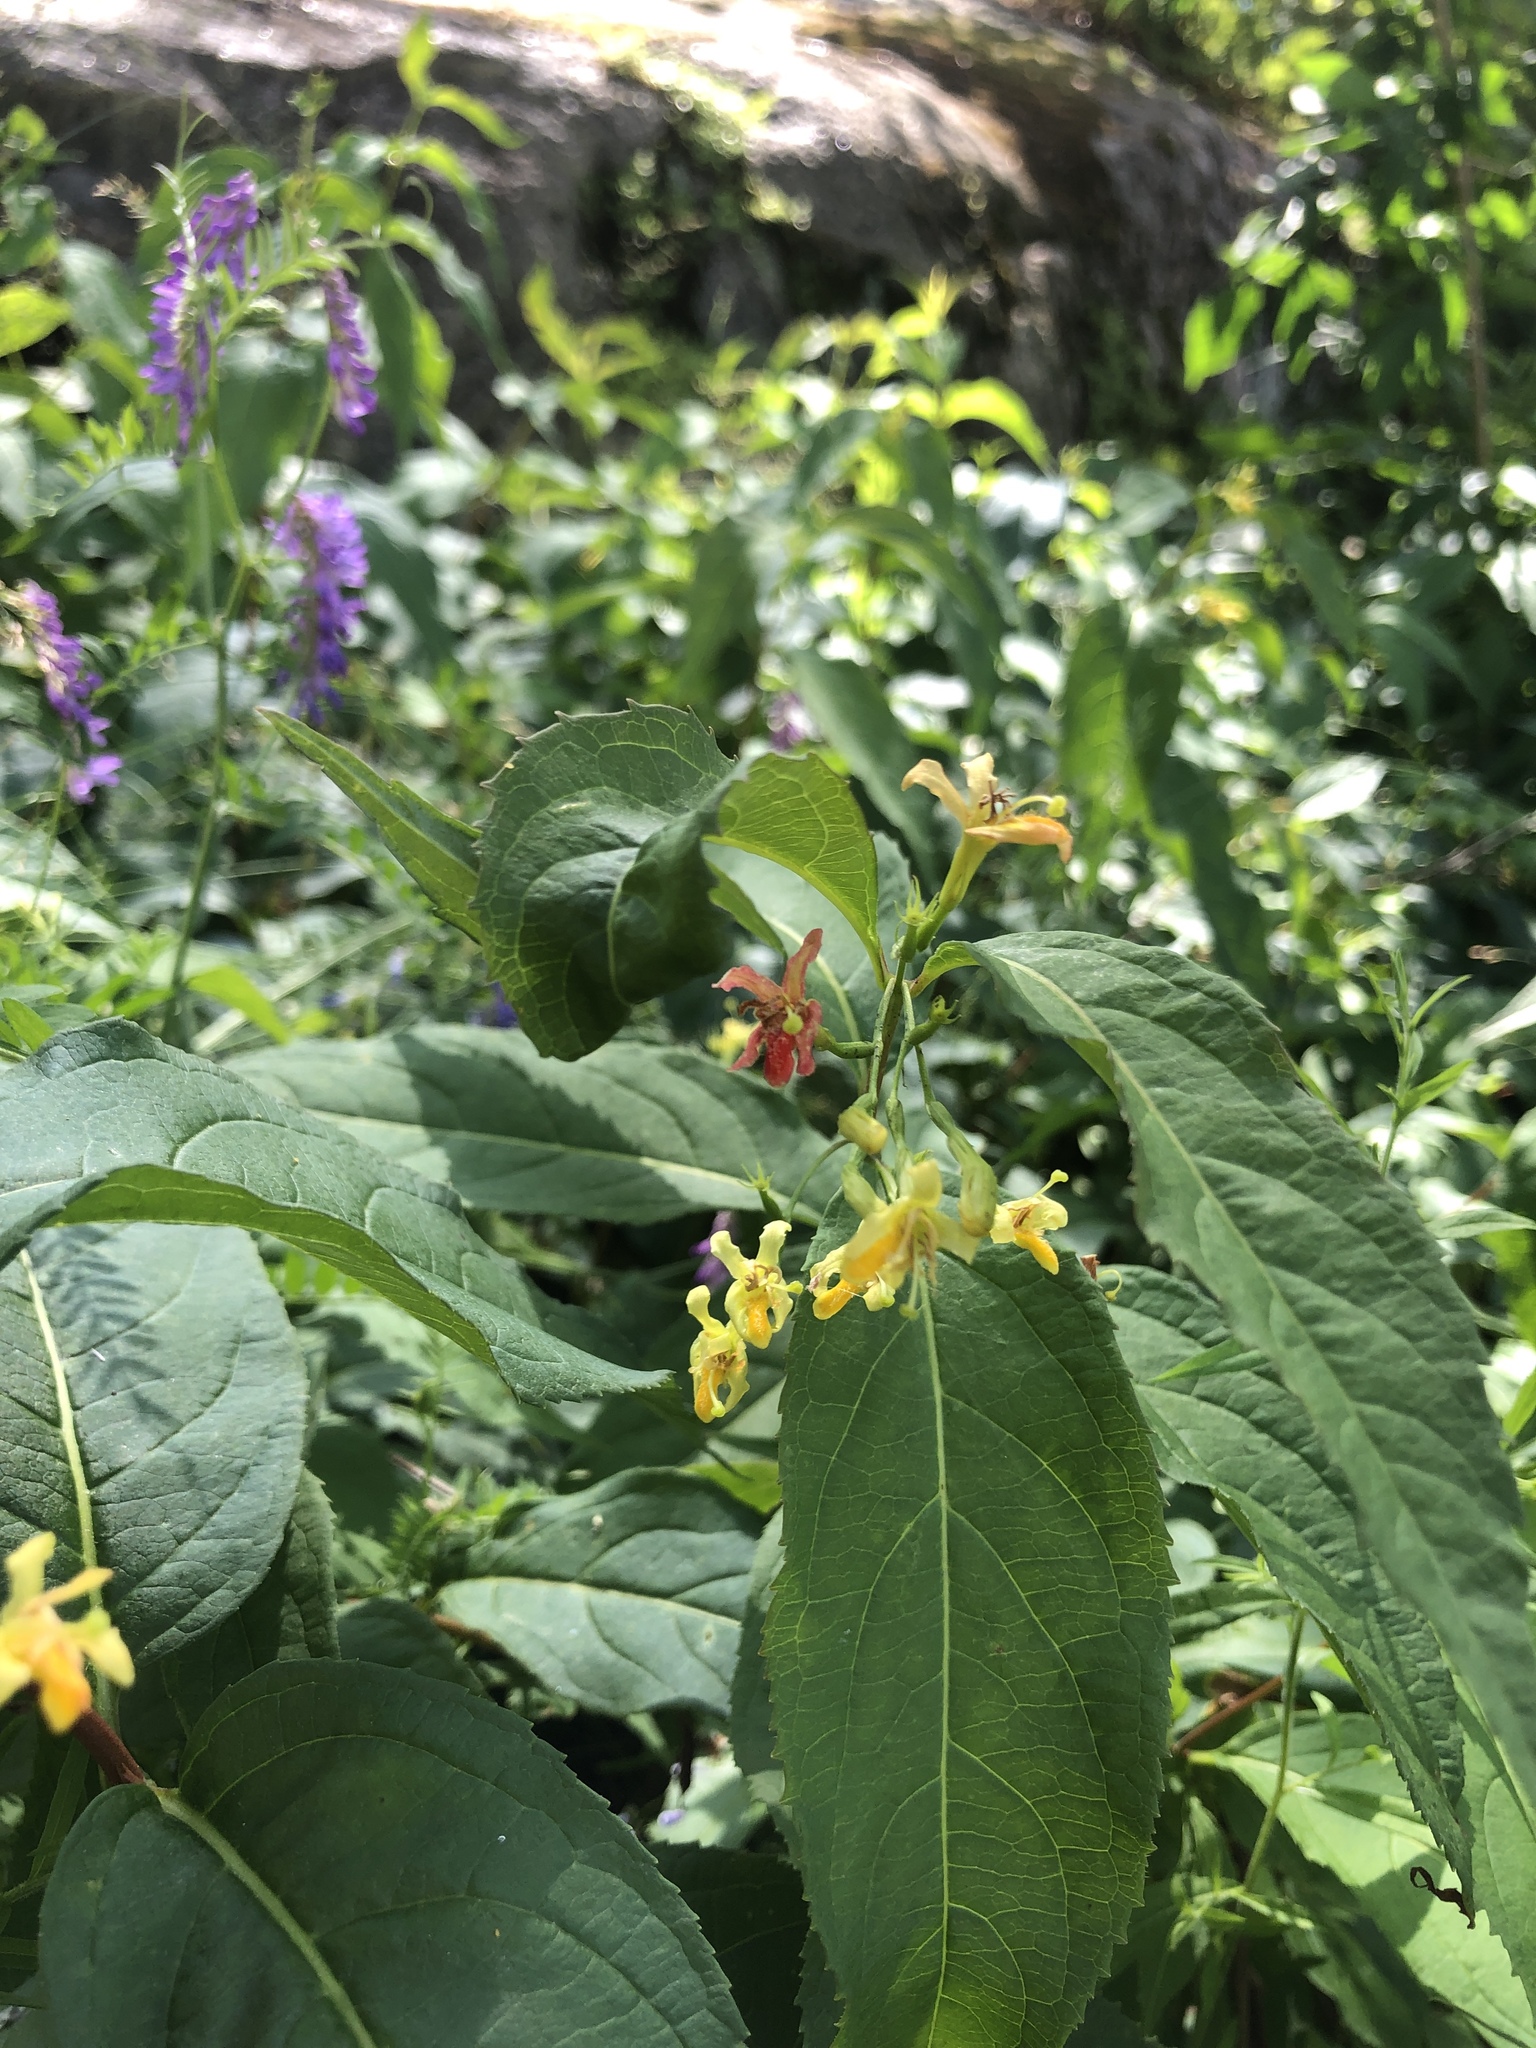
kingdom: Plantae
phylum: Tracheophyta
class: Magnoliopsida
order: Dipsacales
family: Caprifoliaceae
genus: Diervilla
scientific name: Diervilla lonicera
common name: Bush-honeysuckle
